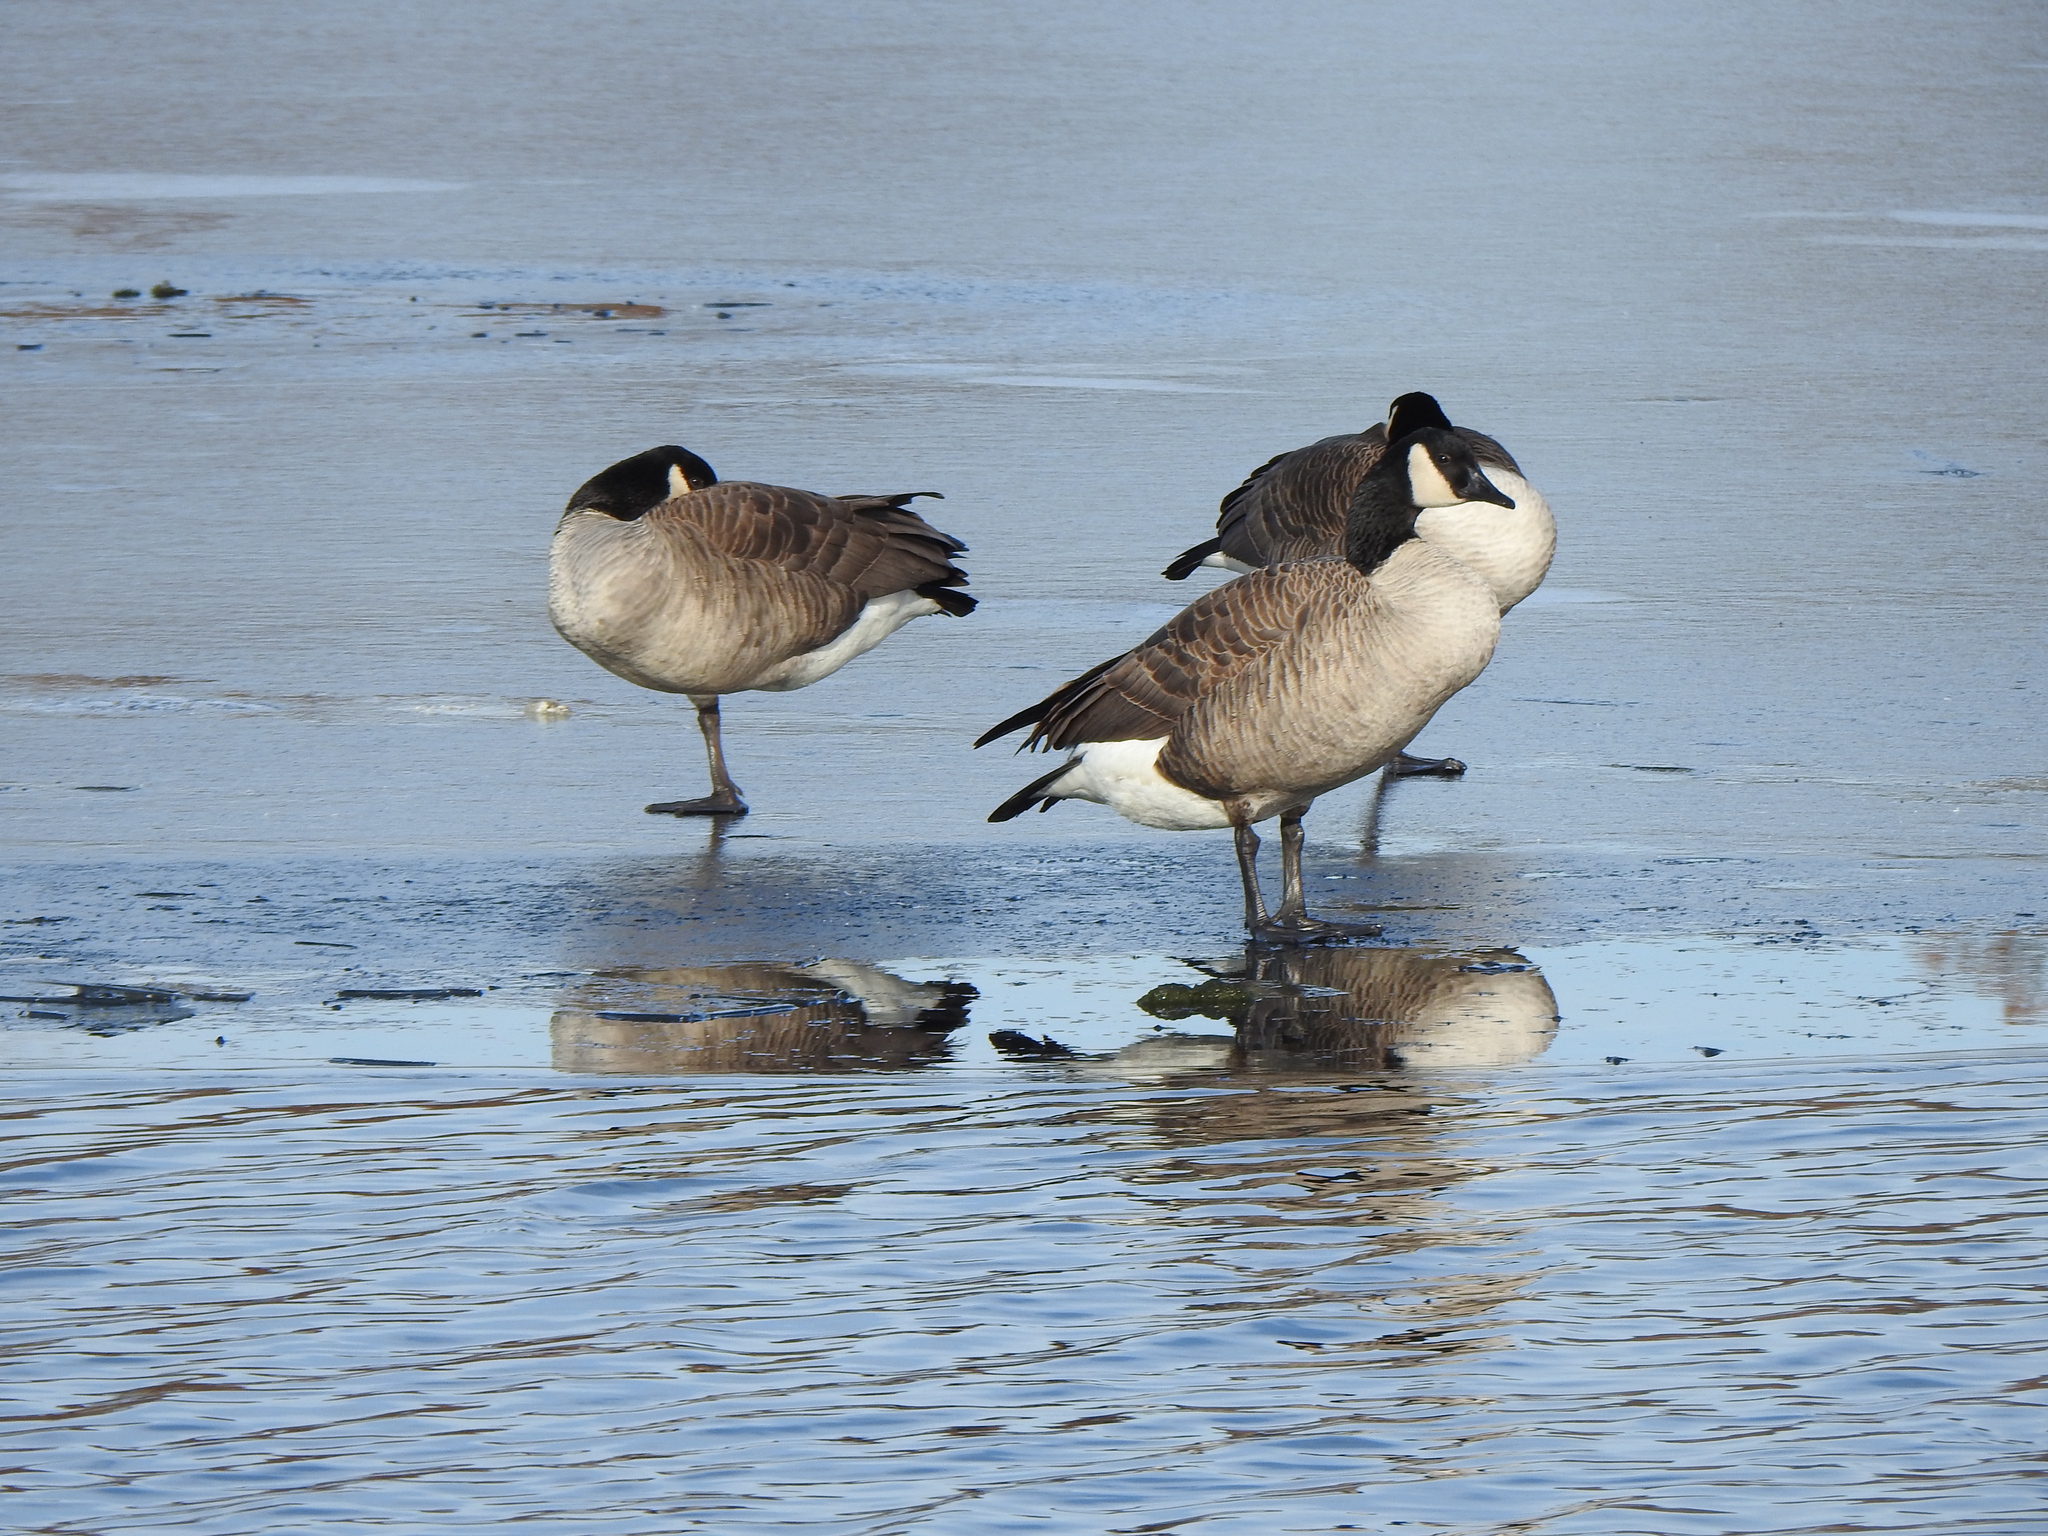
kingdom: Animalia
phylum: Chordata
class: Aves
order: Anseriformes
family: Anatidae
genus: Branta
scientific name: Branta canadensis
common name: Canada goose
